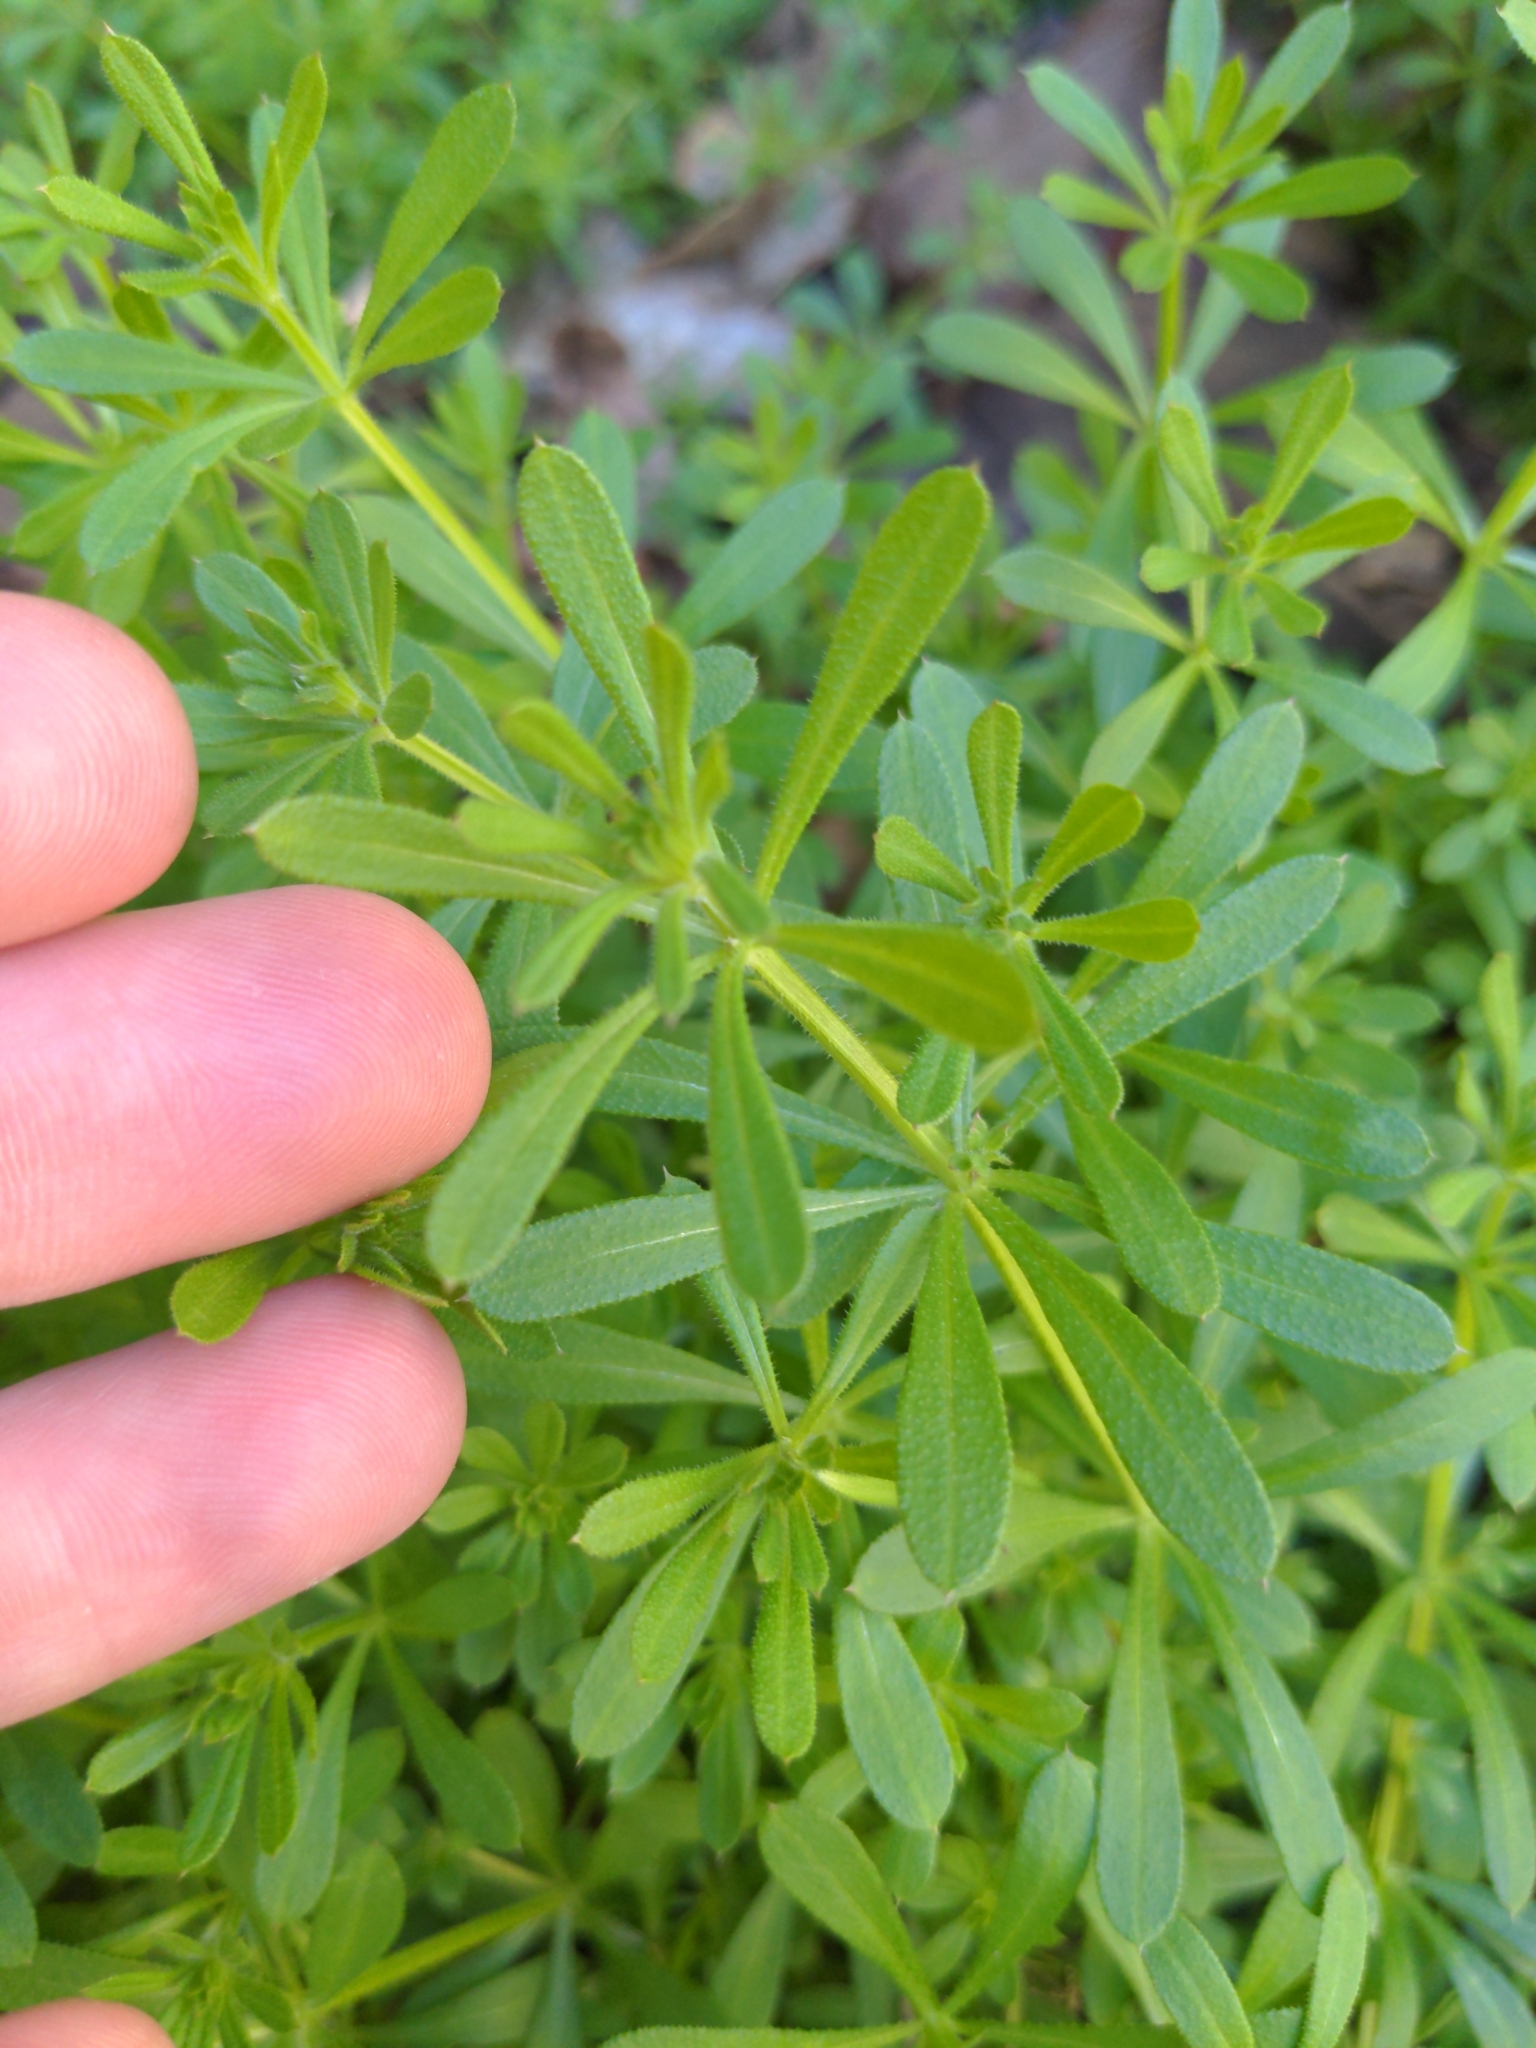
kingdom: Plantae
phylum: Tracheophyta
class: Magnoliopsida
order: Gentianales
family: Rubiaceae
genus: Galium
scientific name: Galium aparine
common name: Cleavers
